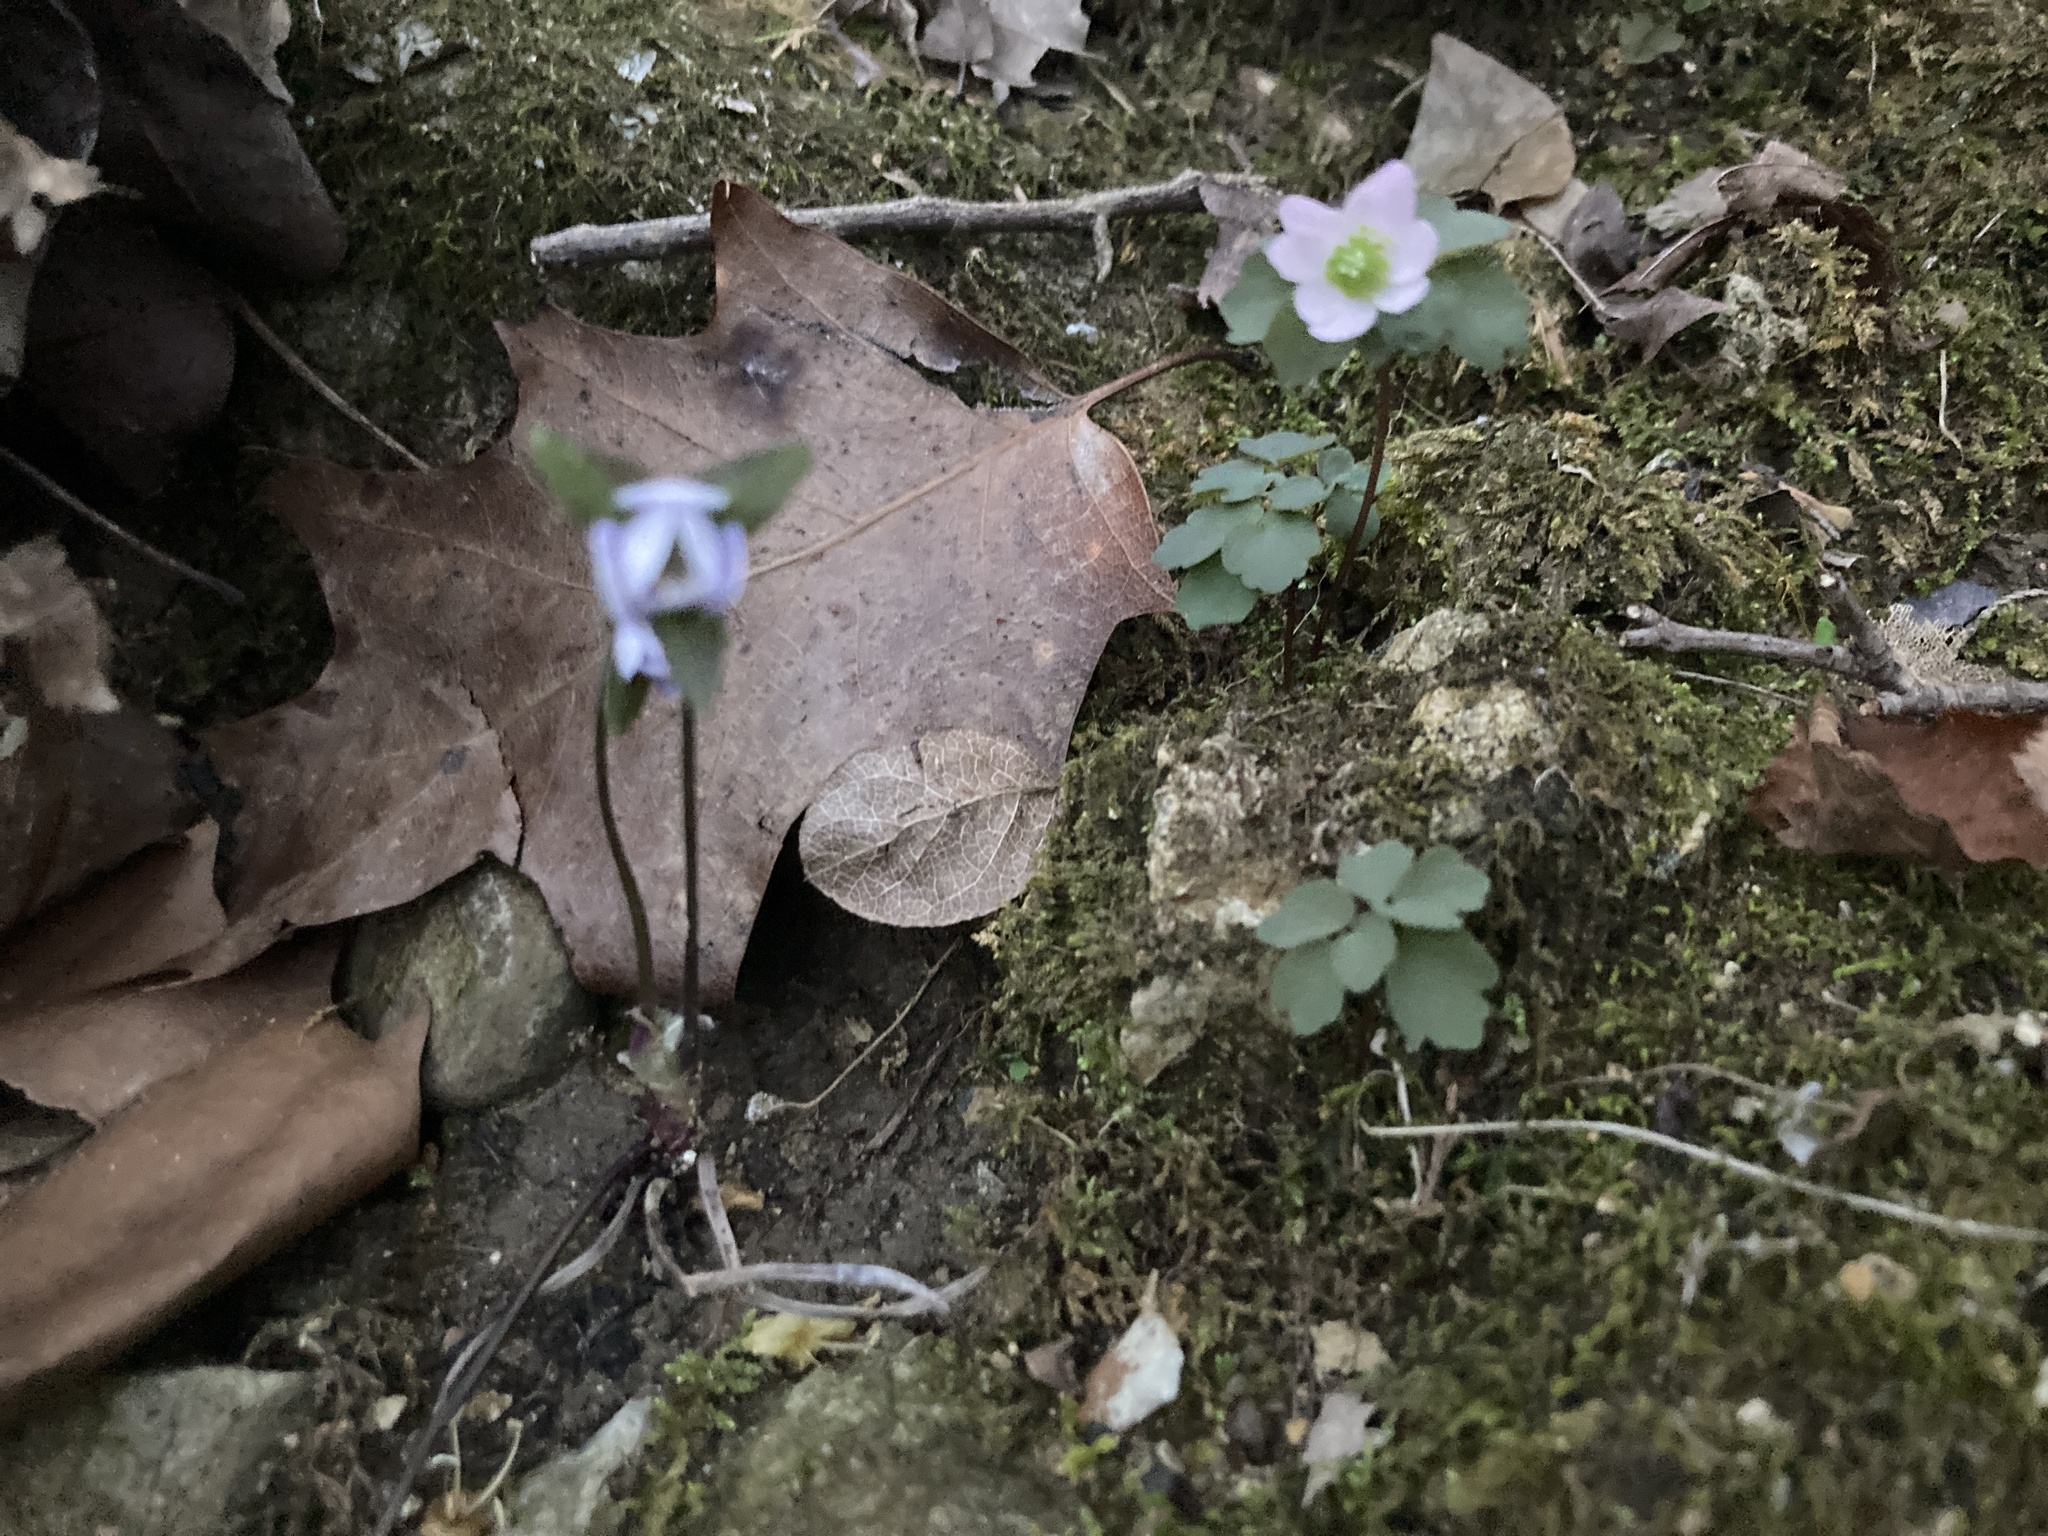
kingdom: Plantae
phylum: Tracheophyta
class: Magnoliopsida
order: Ranunculales
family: Ranunculaceae
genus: Thalictrum
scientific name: Thalictrum thalictroides
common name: Rue-anemone
